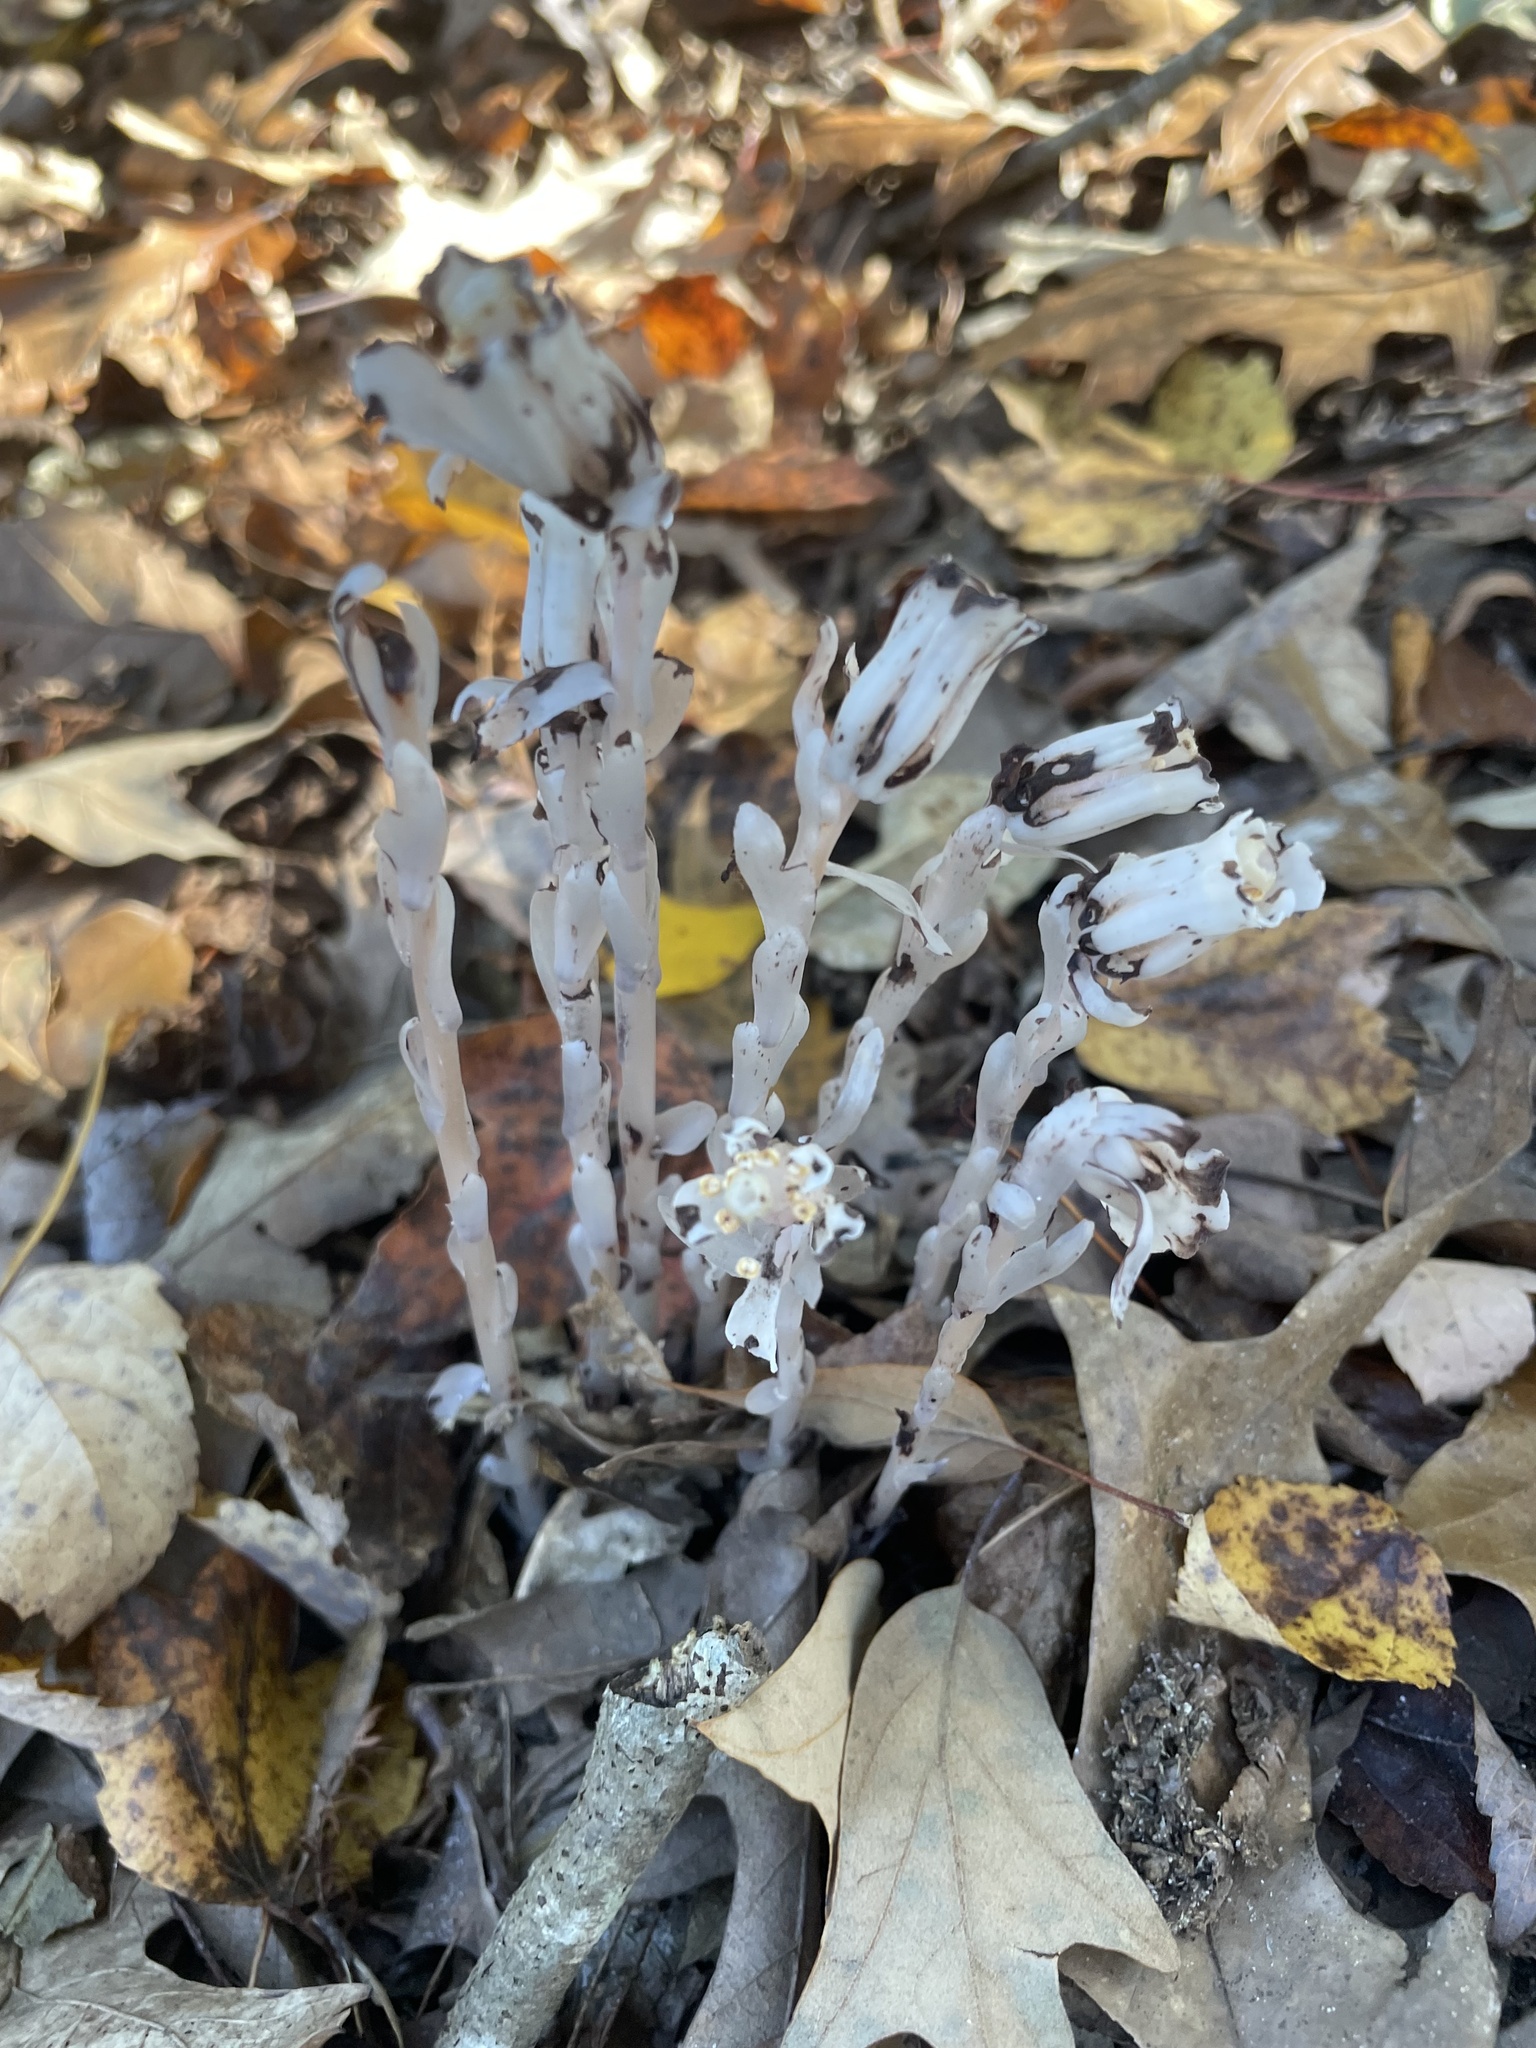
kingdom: Plantae
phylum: Tracheophyta
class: Magnoliopsida
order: Ericales
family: Ericaceae
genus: Monotropa
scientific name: Monotropa uniflora
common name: Convulsion root
